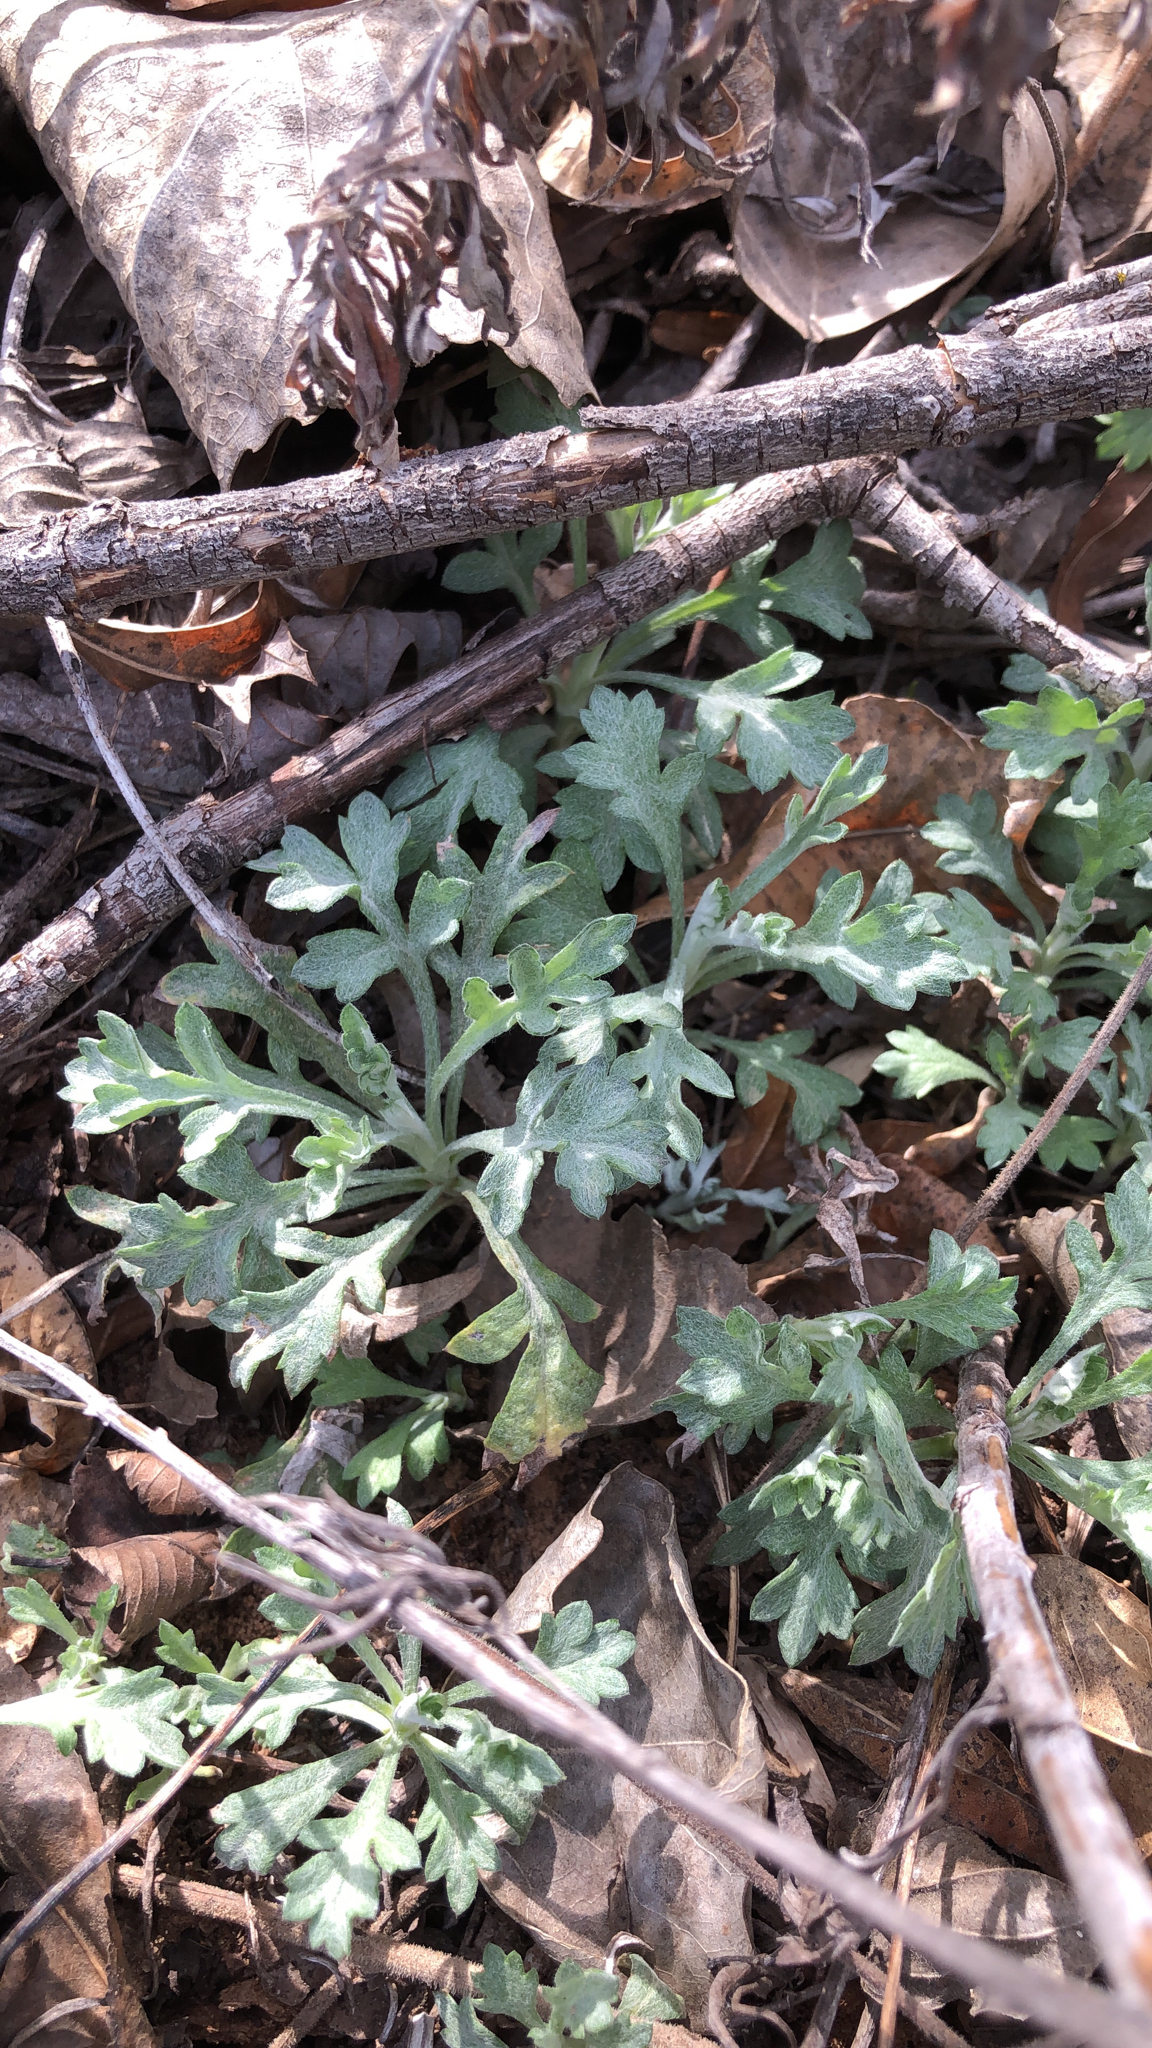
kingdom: Plantae
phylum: Tracheophyta
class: Magnoliopsida
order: Asterales
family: Asteraceae
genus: Artemisia
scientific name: Artemisia ludoviciana
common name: Western mugwort
